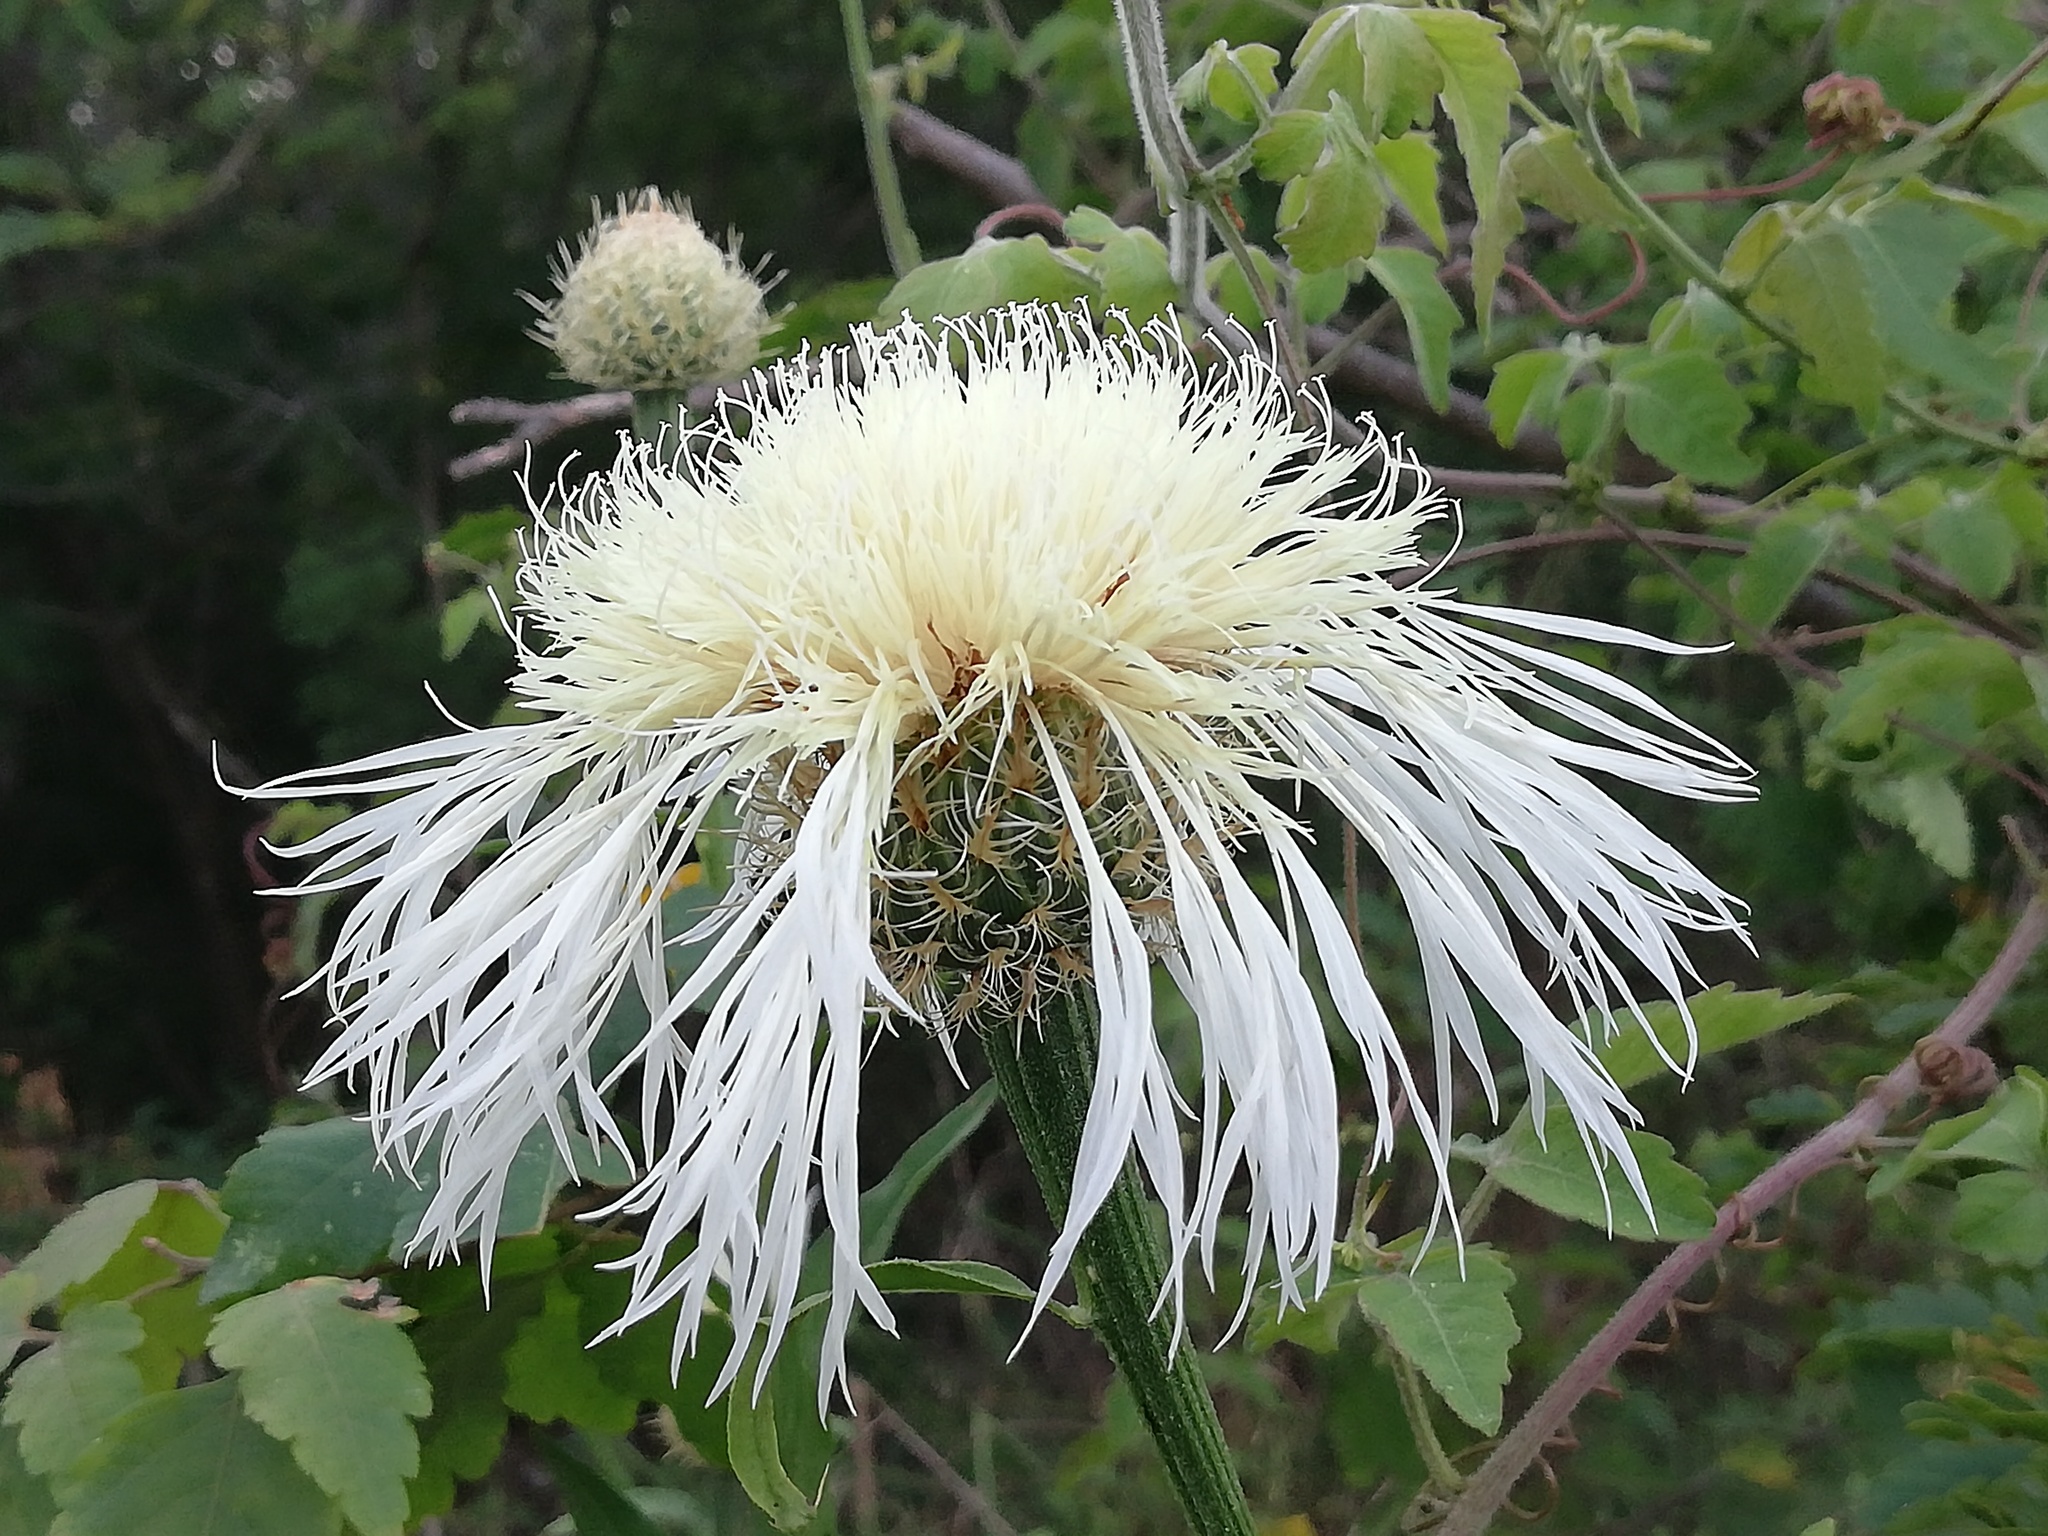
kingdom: Plantae
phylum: Tracheophyta
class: Magnoliopsida
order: Asterales
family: Asteraceae
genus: Plectocephalus
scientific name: Plectocephalus americanus
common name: American basket-flower
